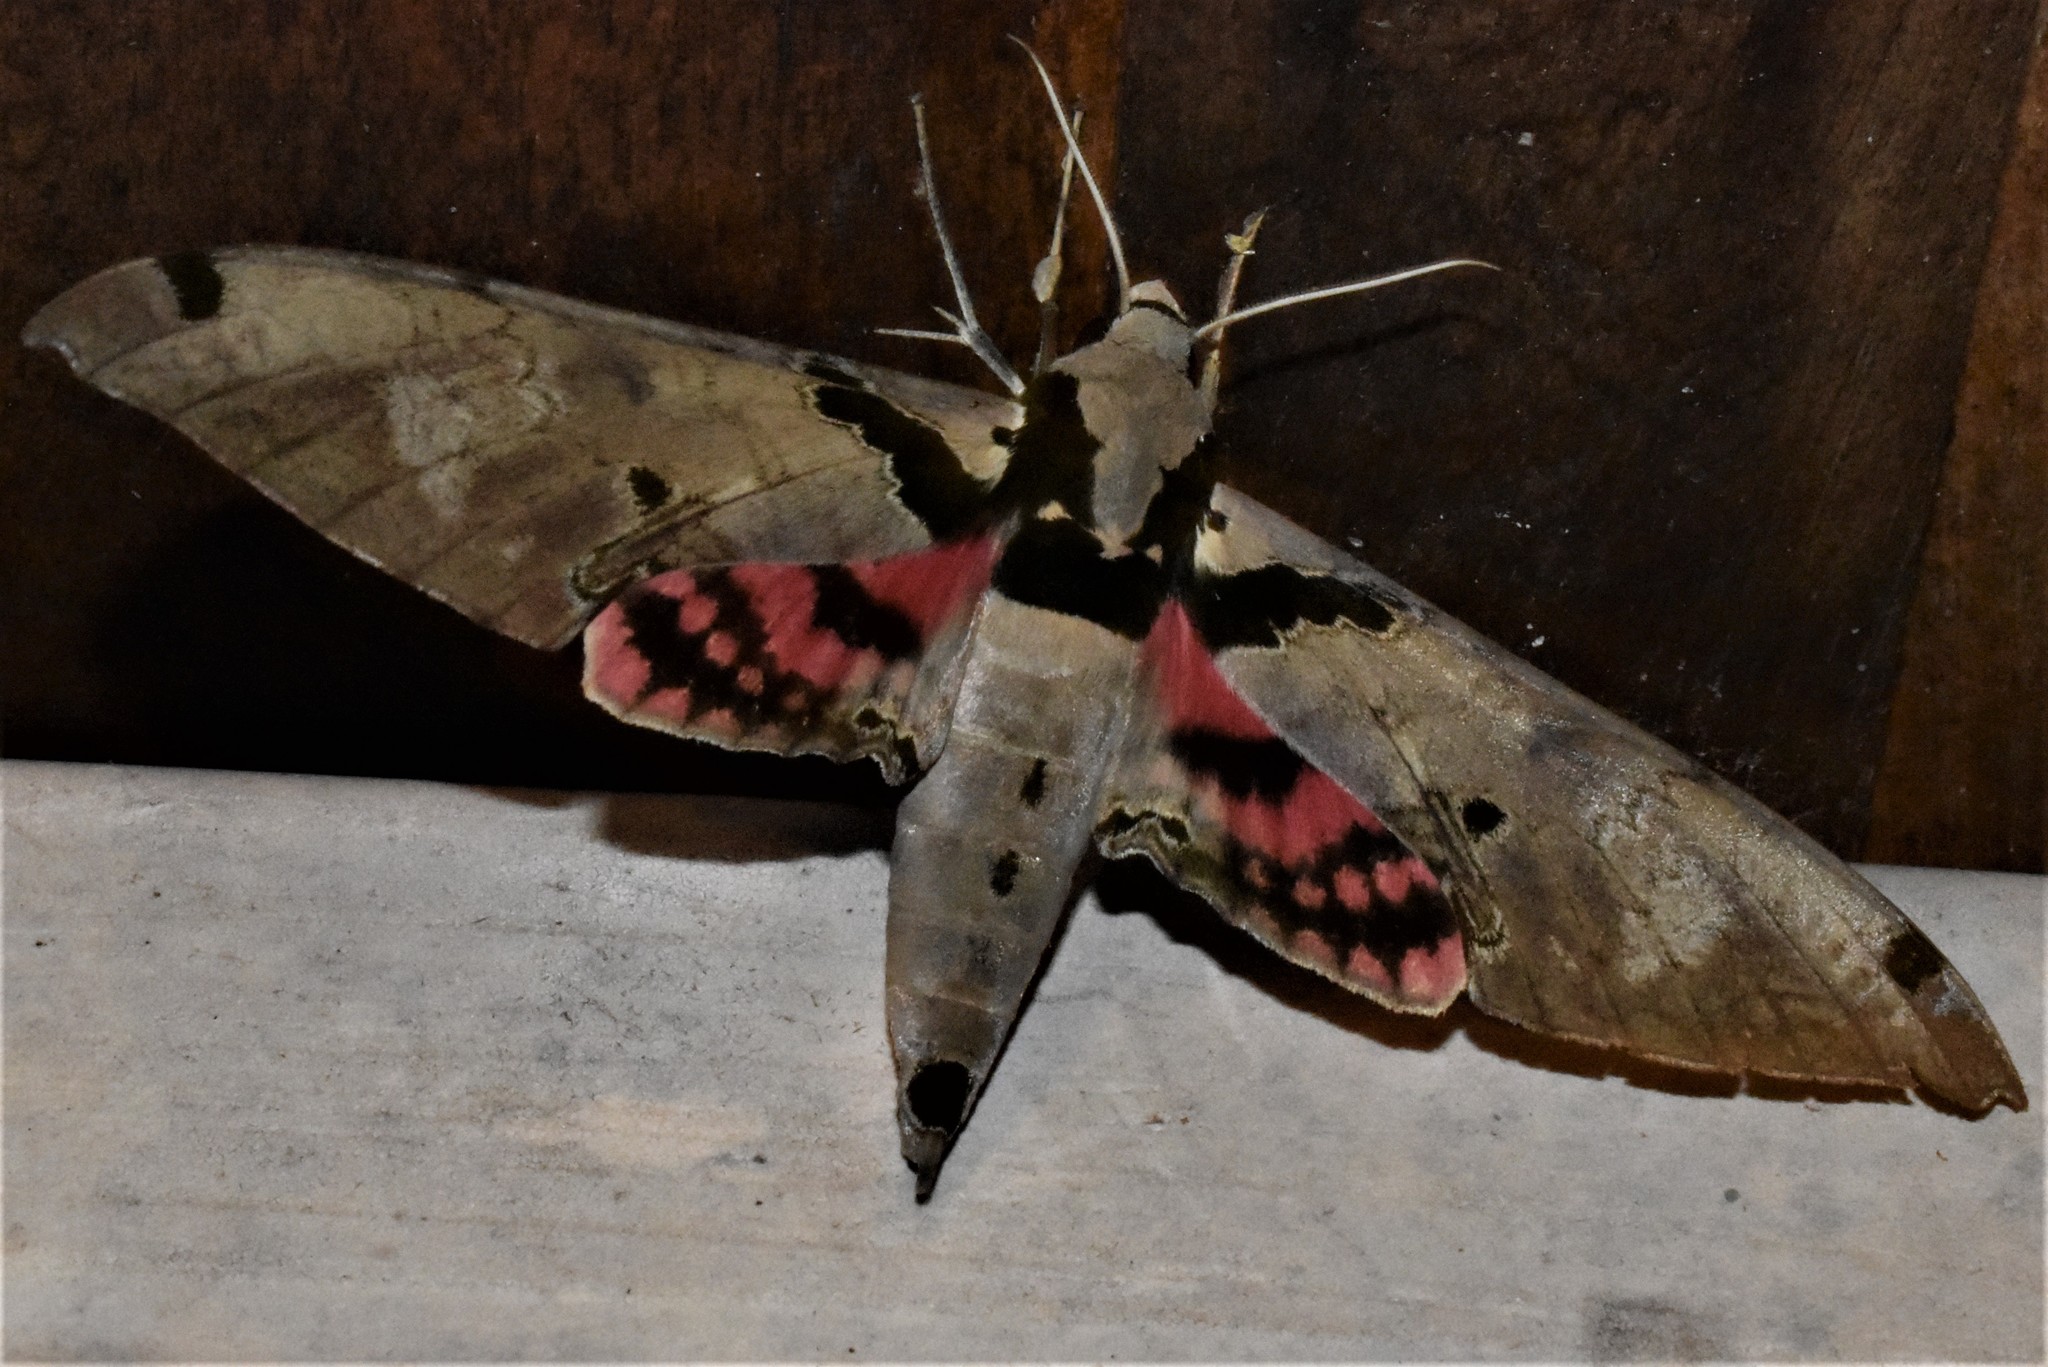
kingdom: Animalia
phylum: Arthropoda
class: Insecta
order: Lepidoptera
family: Sphingidae
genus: Adhemarius
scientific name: Adhemarius daphne
